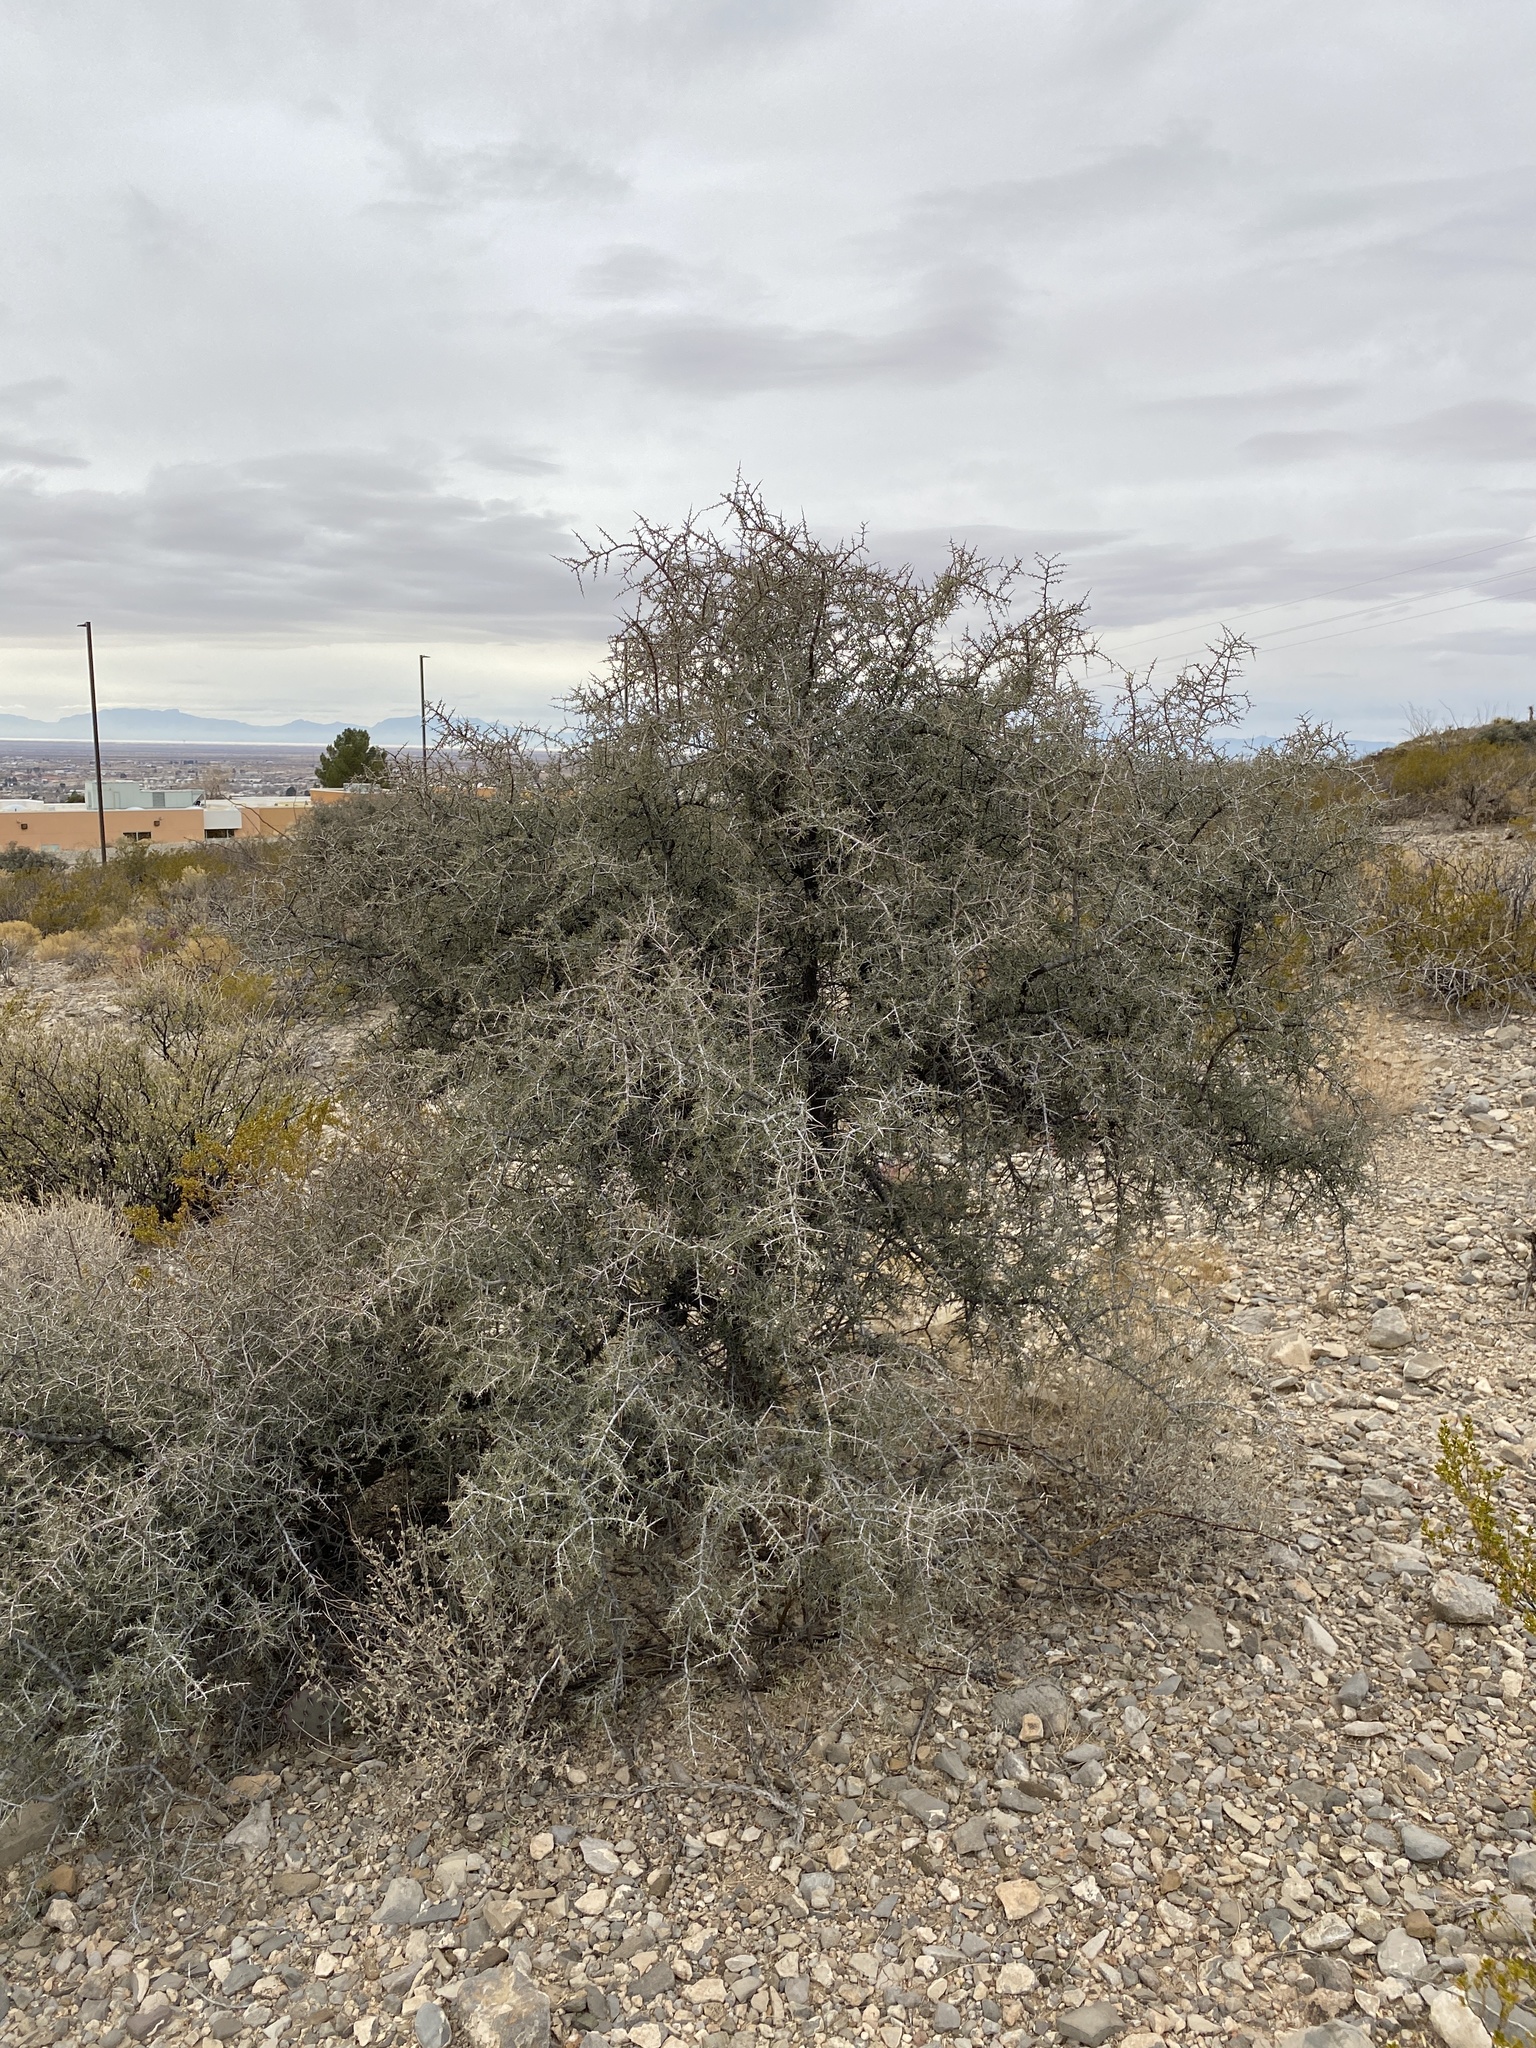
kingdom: Plantae
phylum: Tracheophyta
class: Magnoliopsida
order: Rosales
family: Rhamnaceae
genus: Condalia
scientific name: Condalia warnockii
